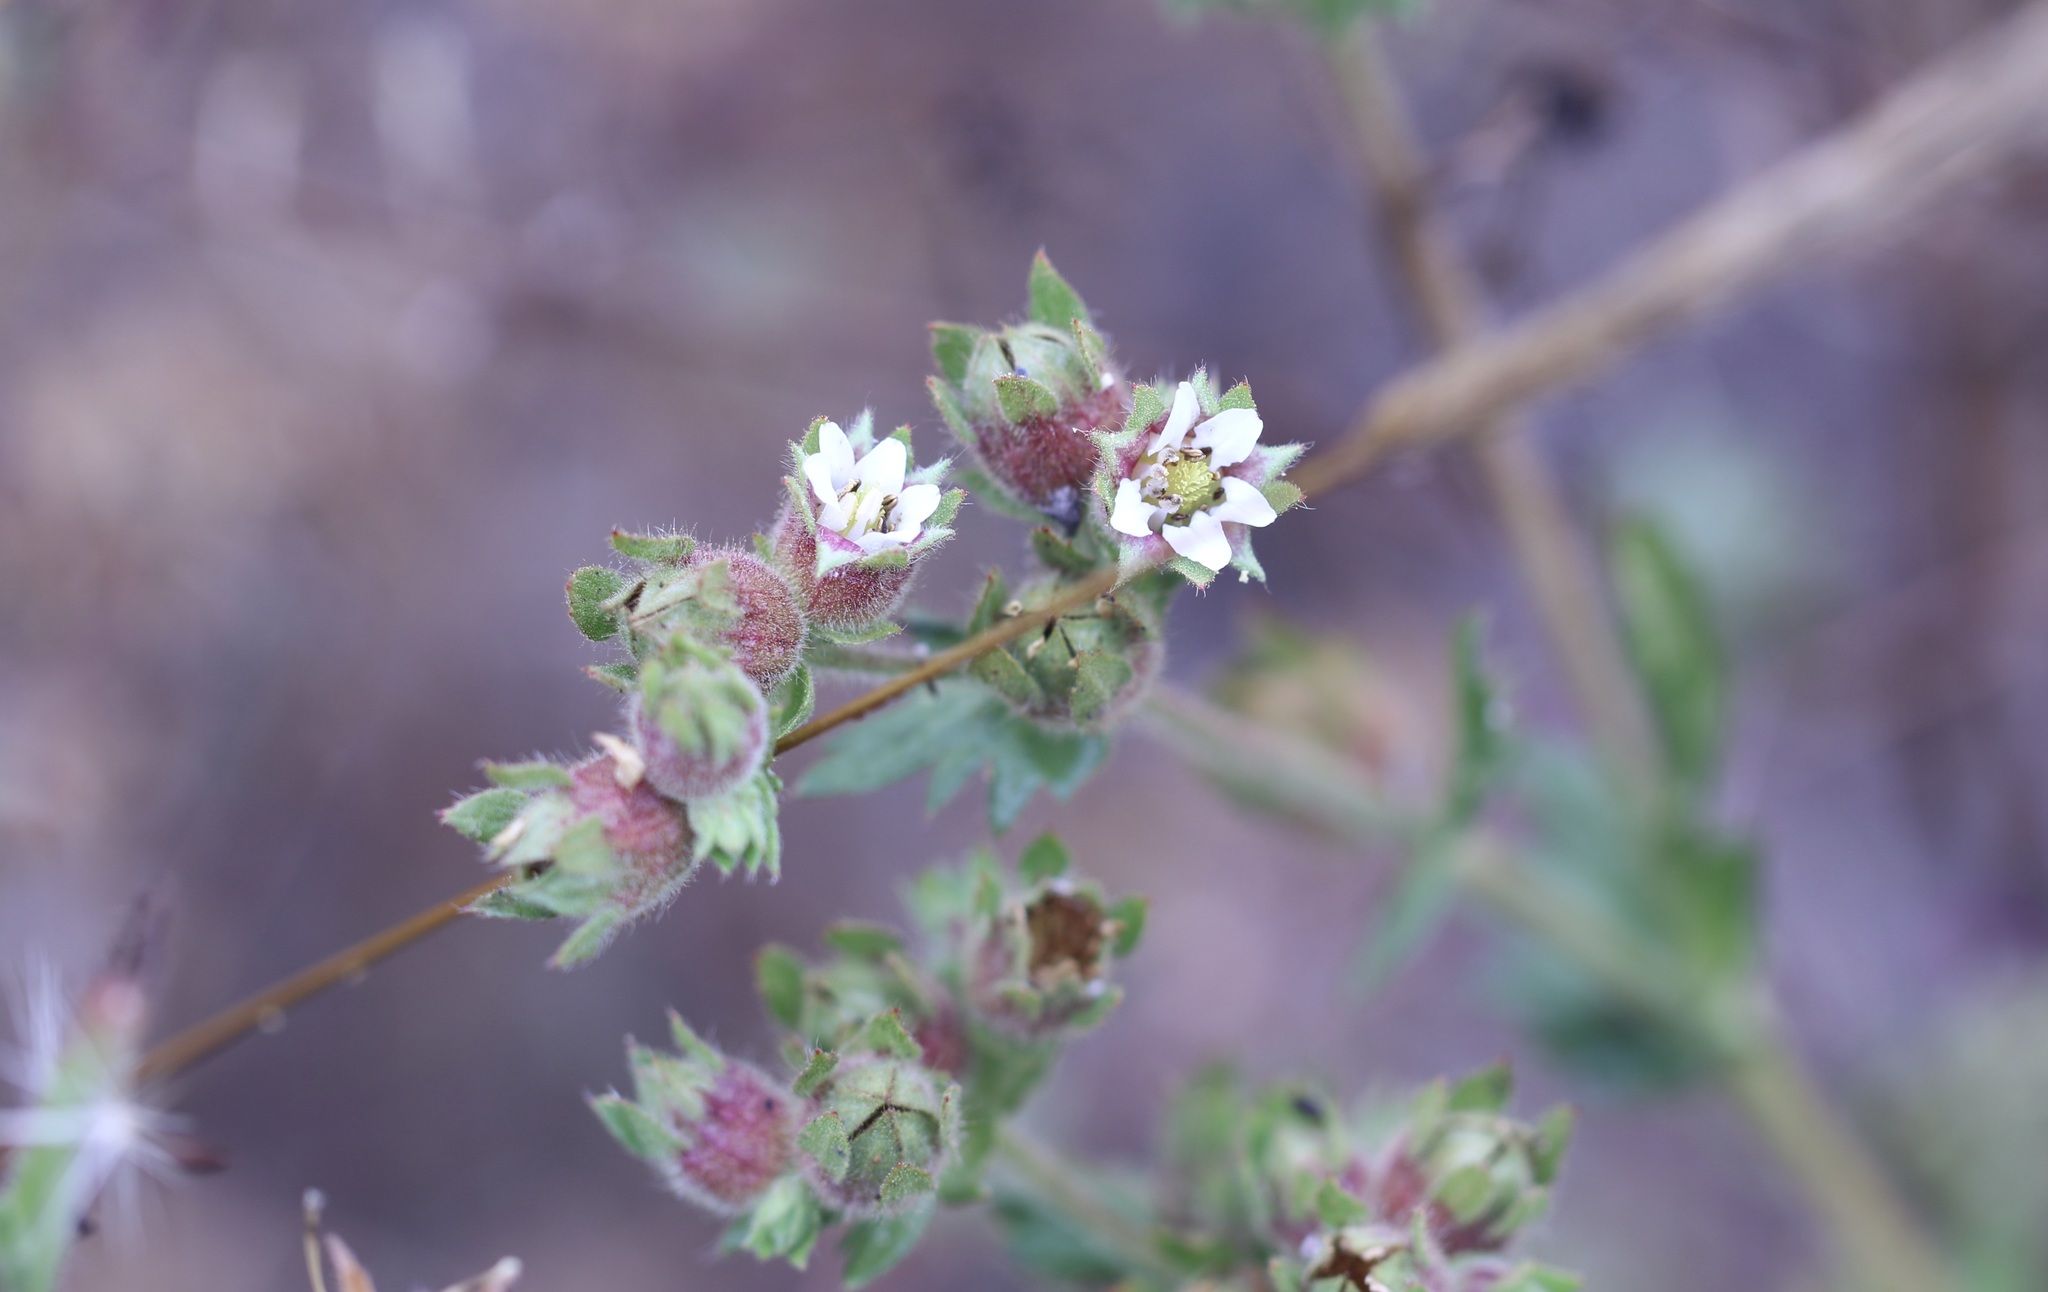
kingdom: Plantae
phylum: Tracheophyta
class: Magnoliopsida
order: Rosales
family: Rosaceae
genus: Potentilla
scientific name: Potentilla californica
